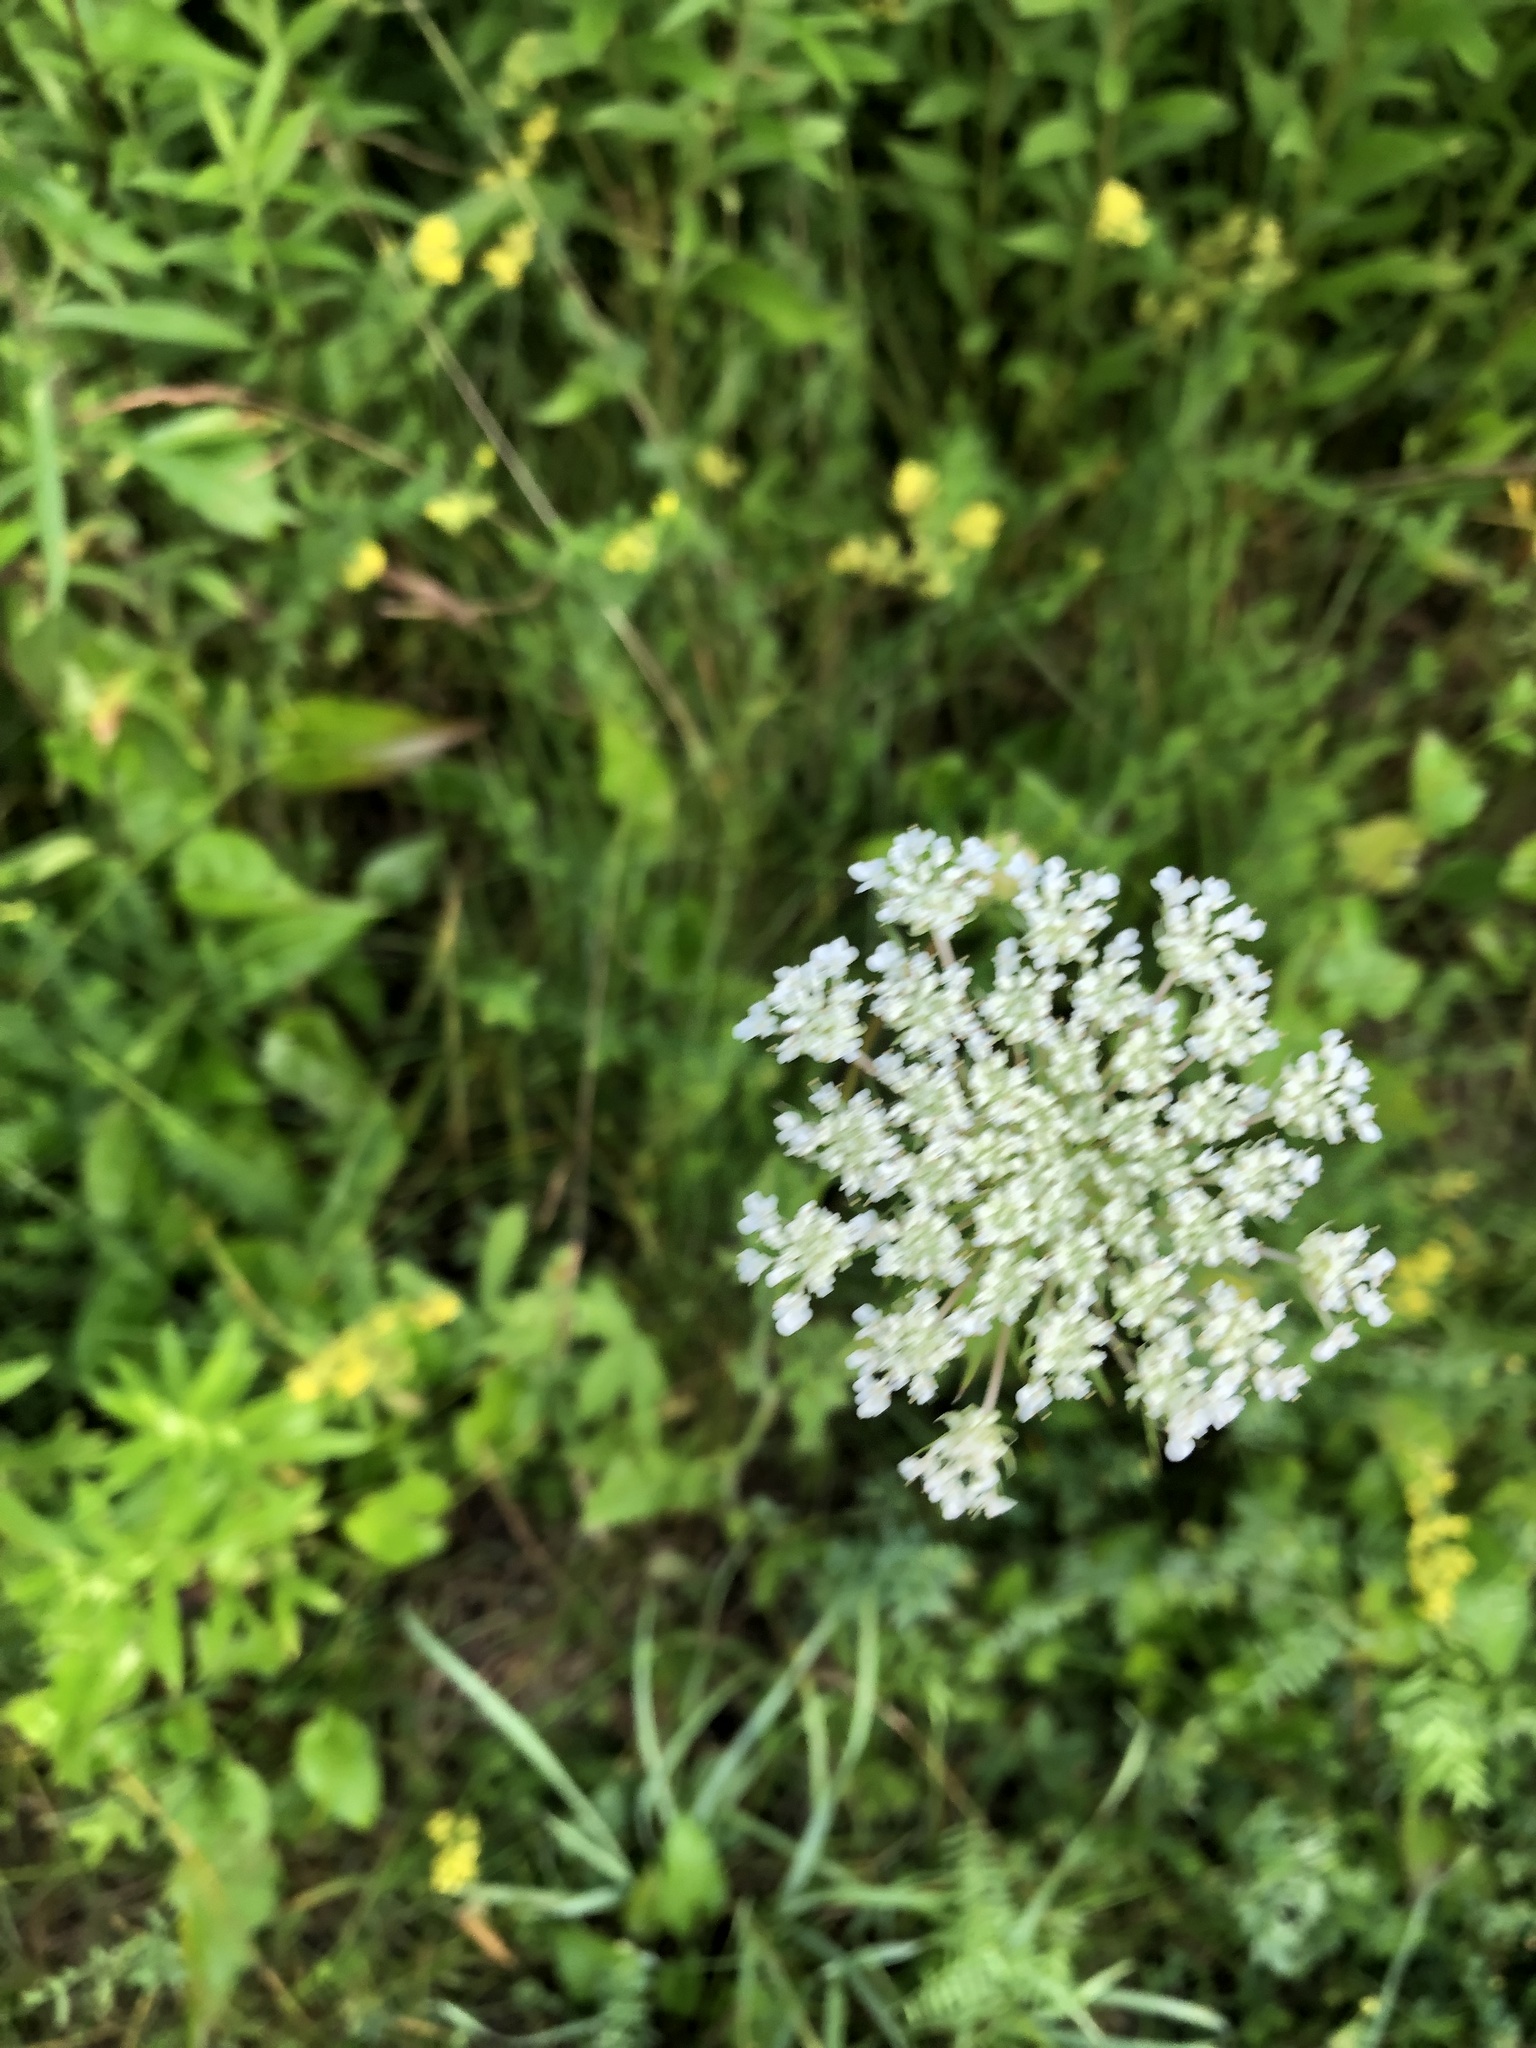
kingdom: Plantae
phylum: Tracheophyta
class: Magnoliopsida
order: Apiales
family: Apiaceae
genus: Daucus
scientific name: Daucus carota
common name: Wild carrot
